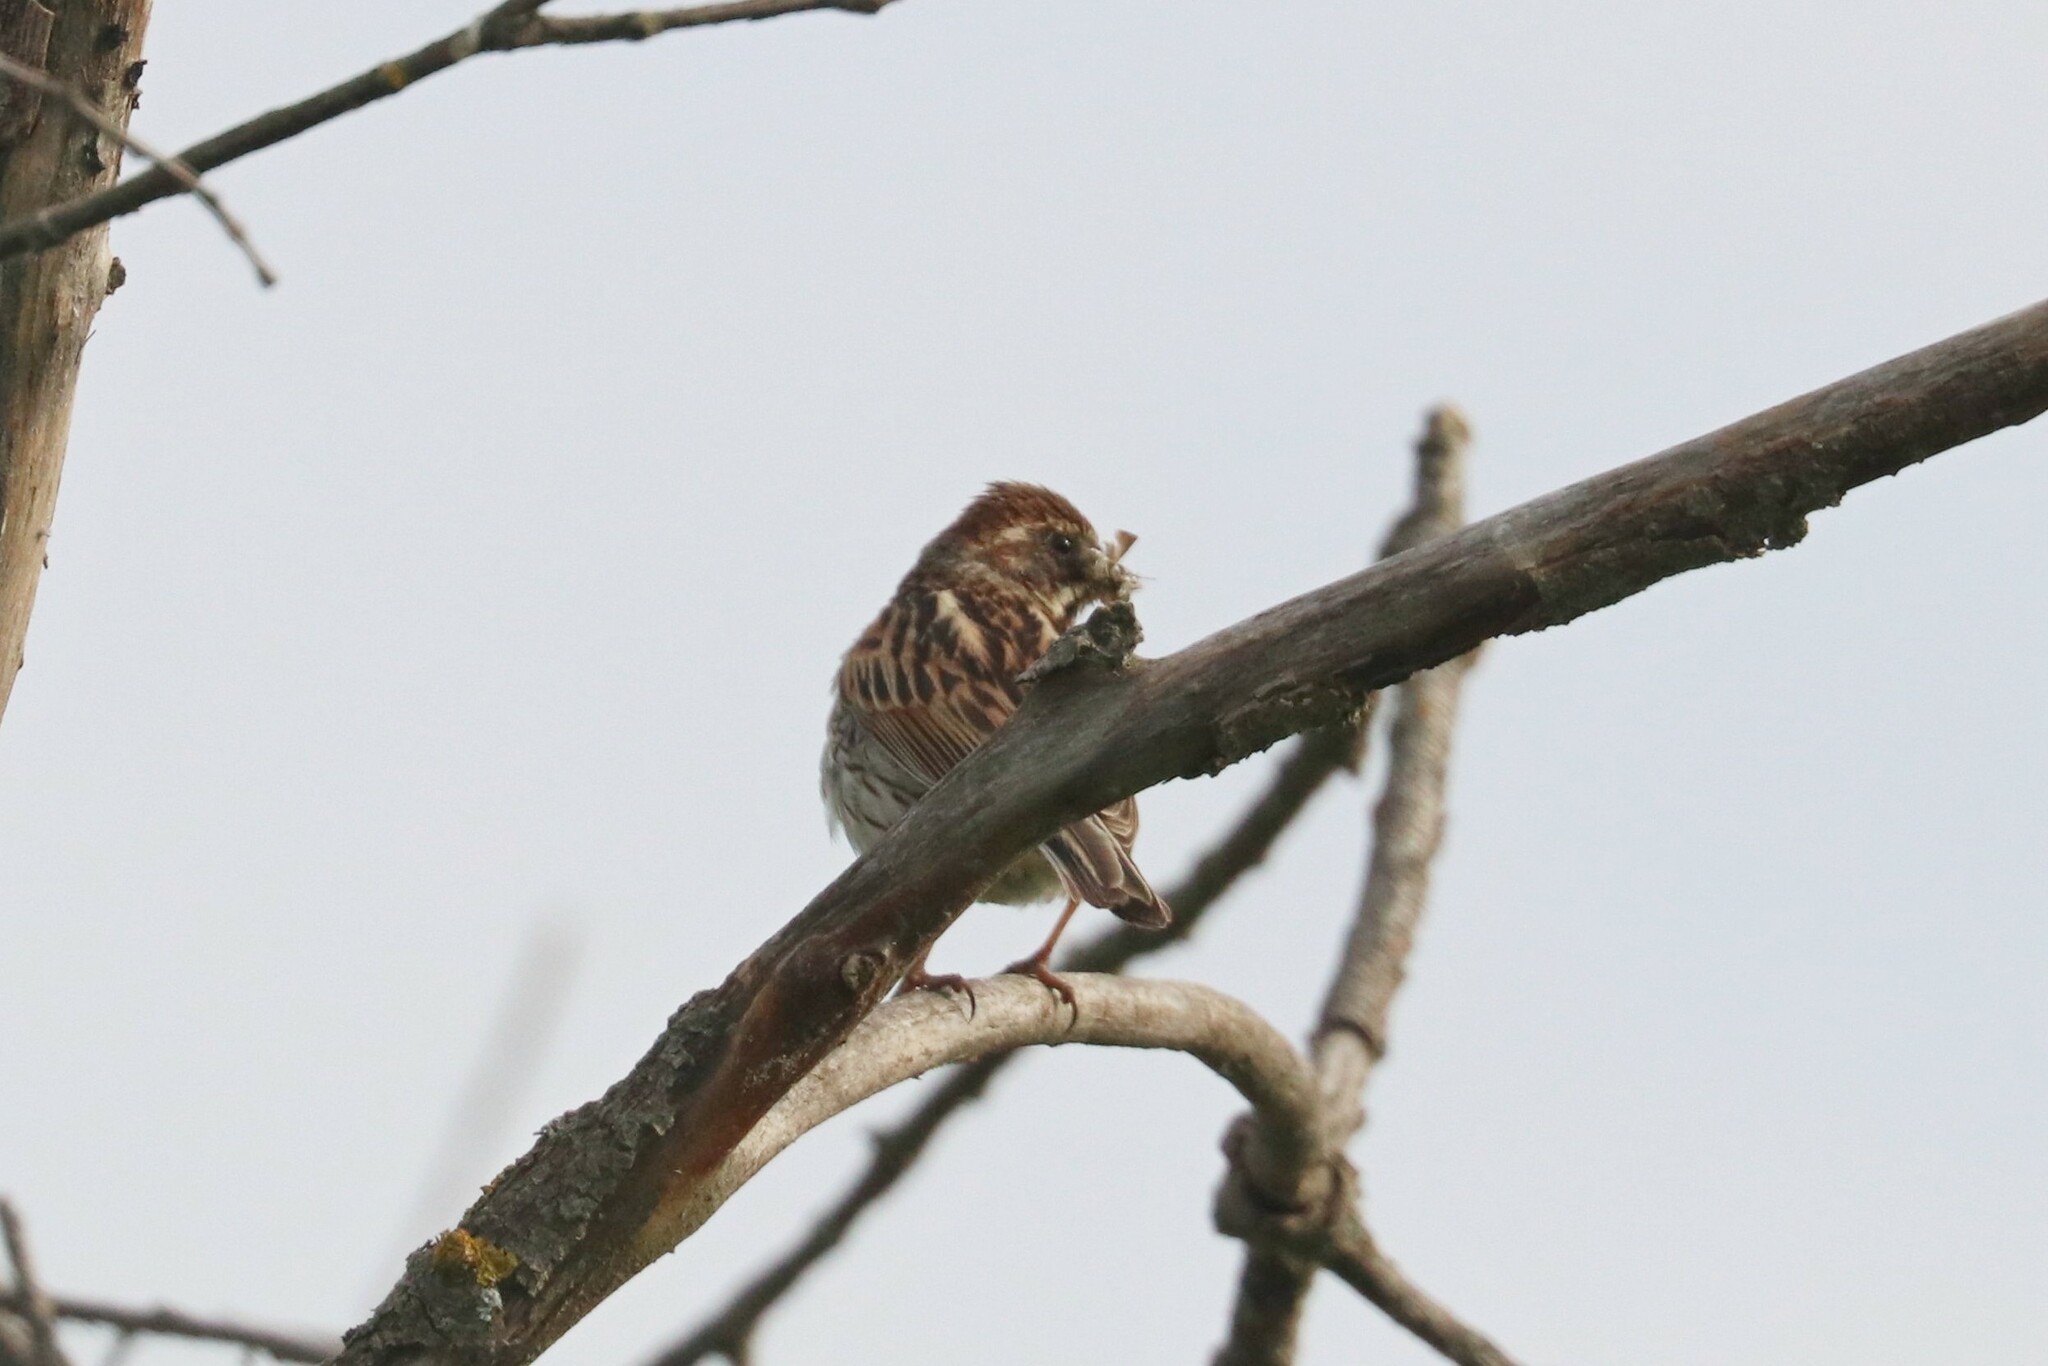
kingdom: Animalia
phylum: Chordata
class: Aves
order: Passeriformes
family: Emberizidae
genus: Emberiza
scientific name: Emberiza schoeniclus
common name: Reed bunting
